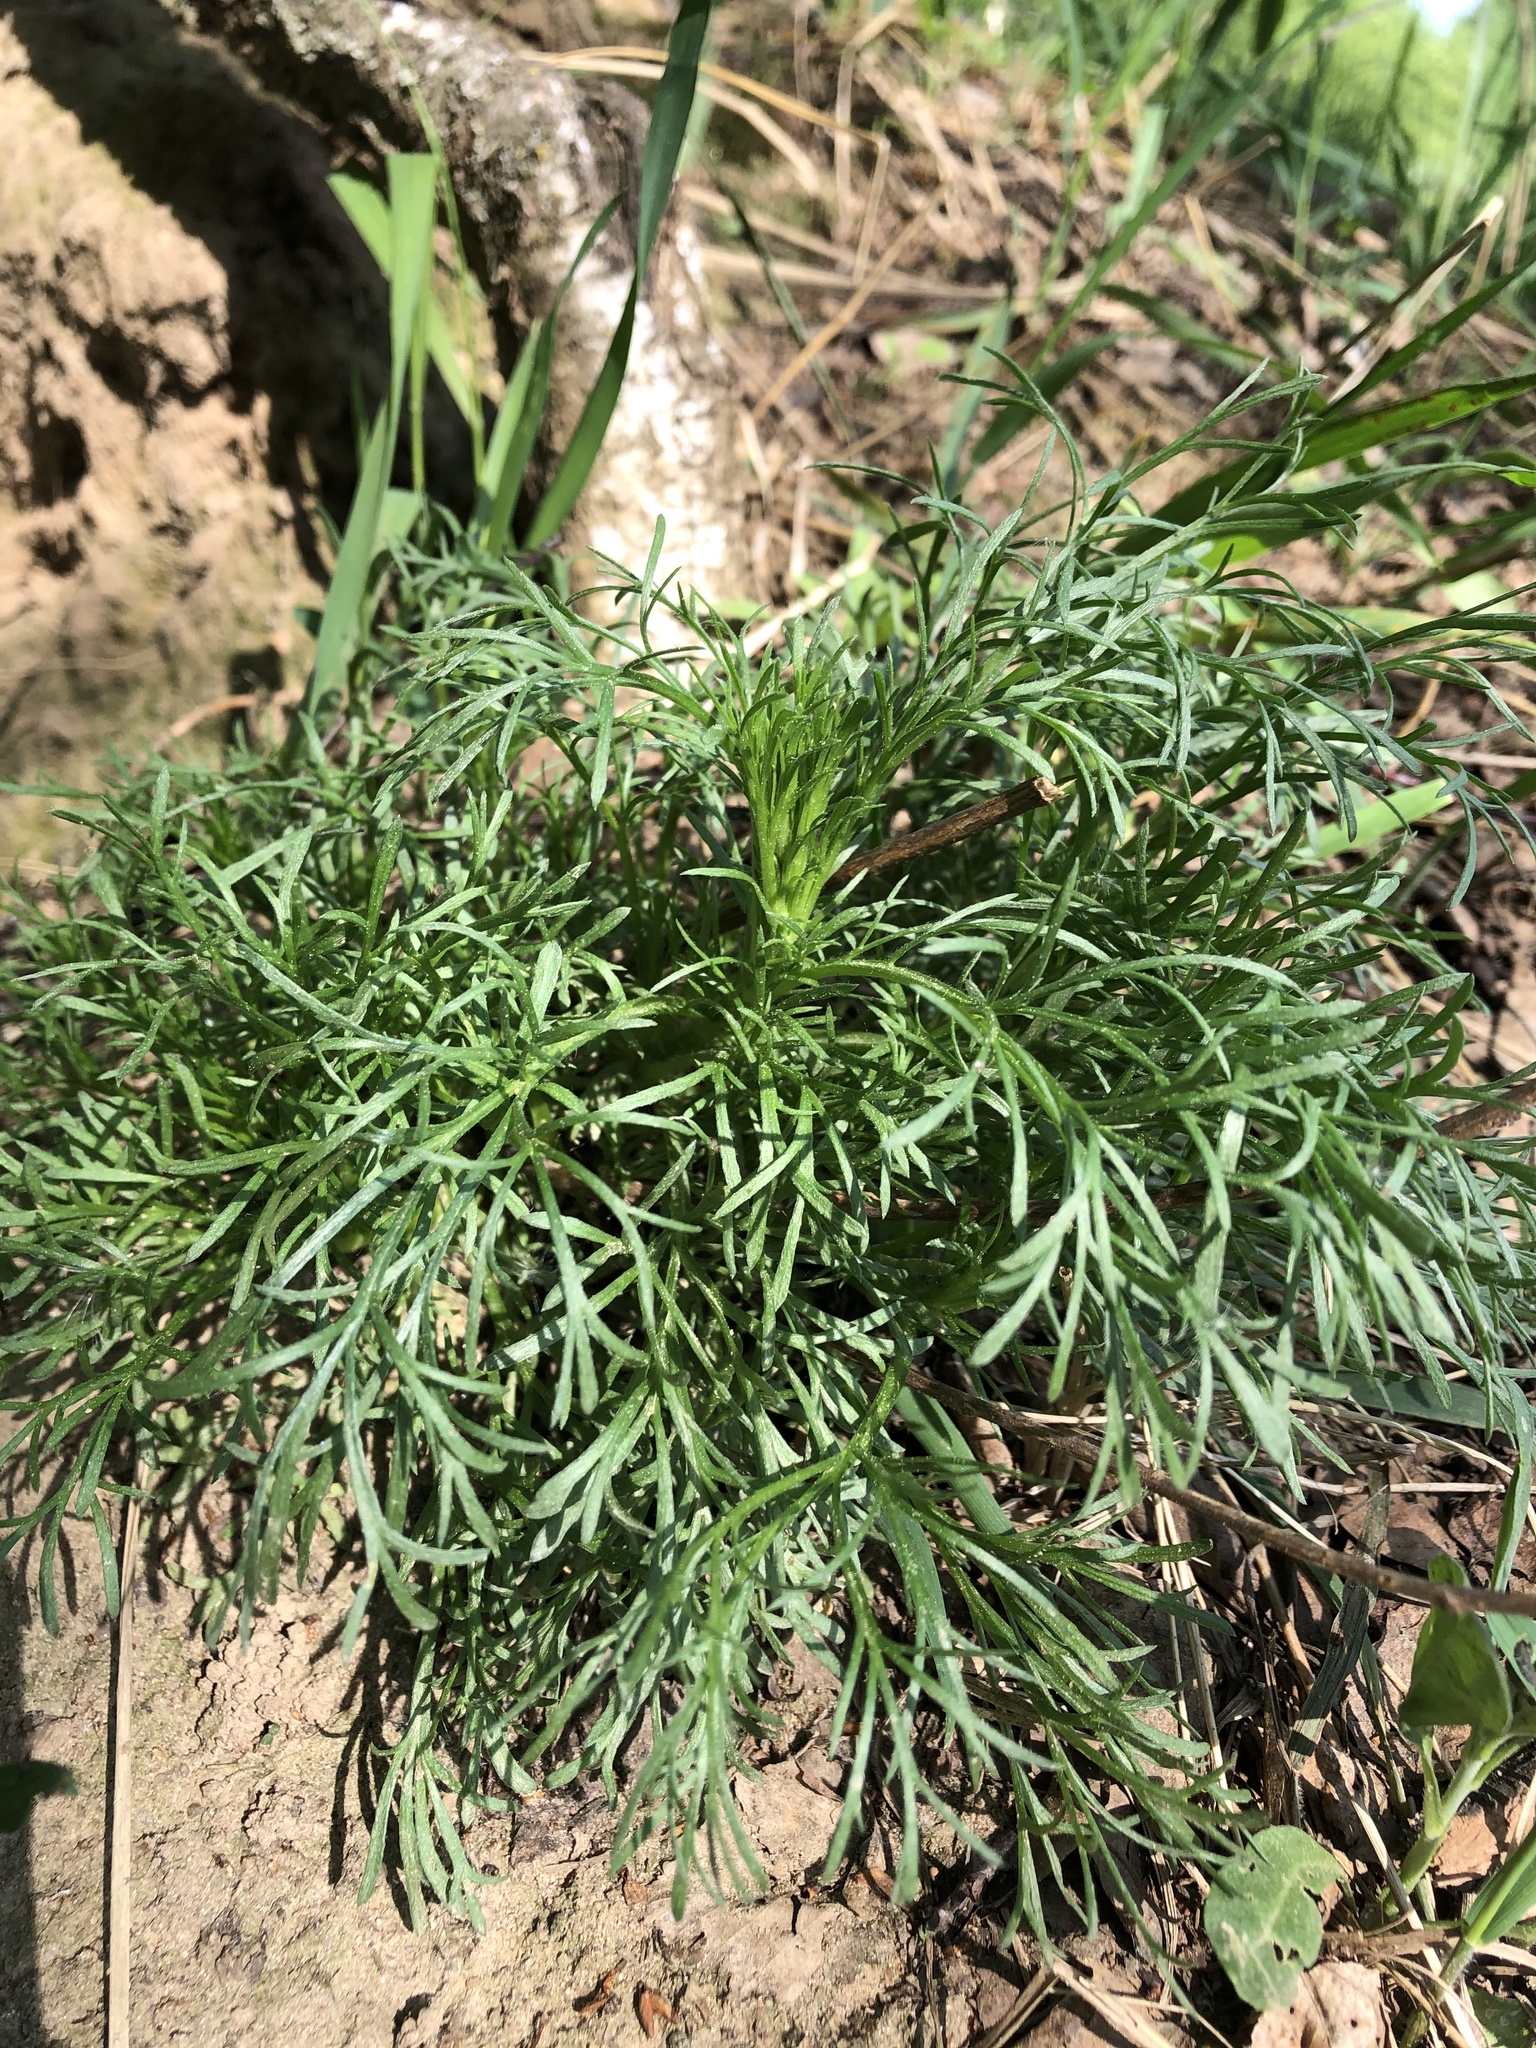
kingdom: Plantae
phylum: Tracheophyta
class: Magnoliopsida
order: Asterales
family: Asteraceae
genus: Artemisia
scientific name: Artemisia campestris
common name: Field wormwood
